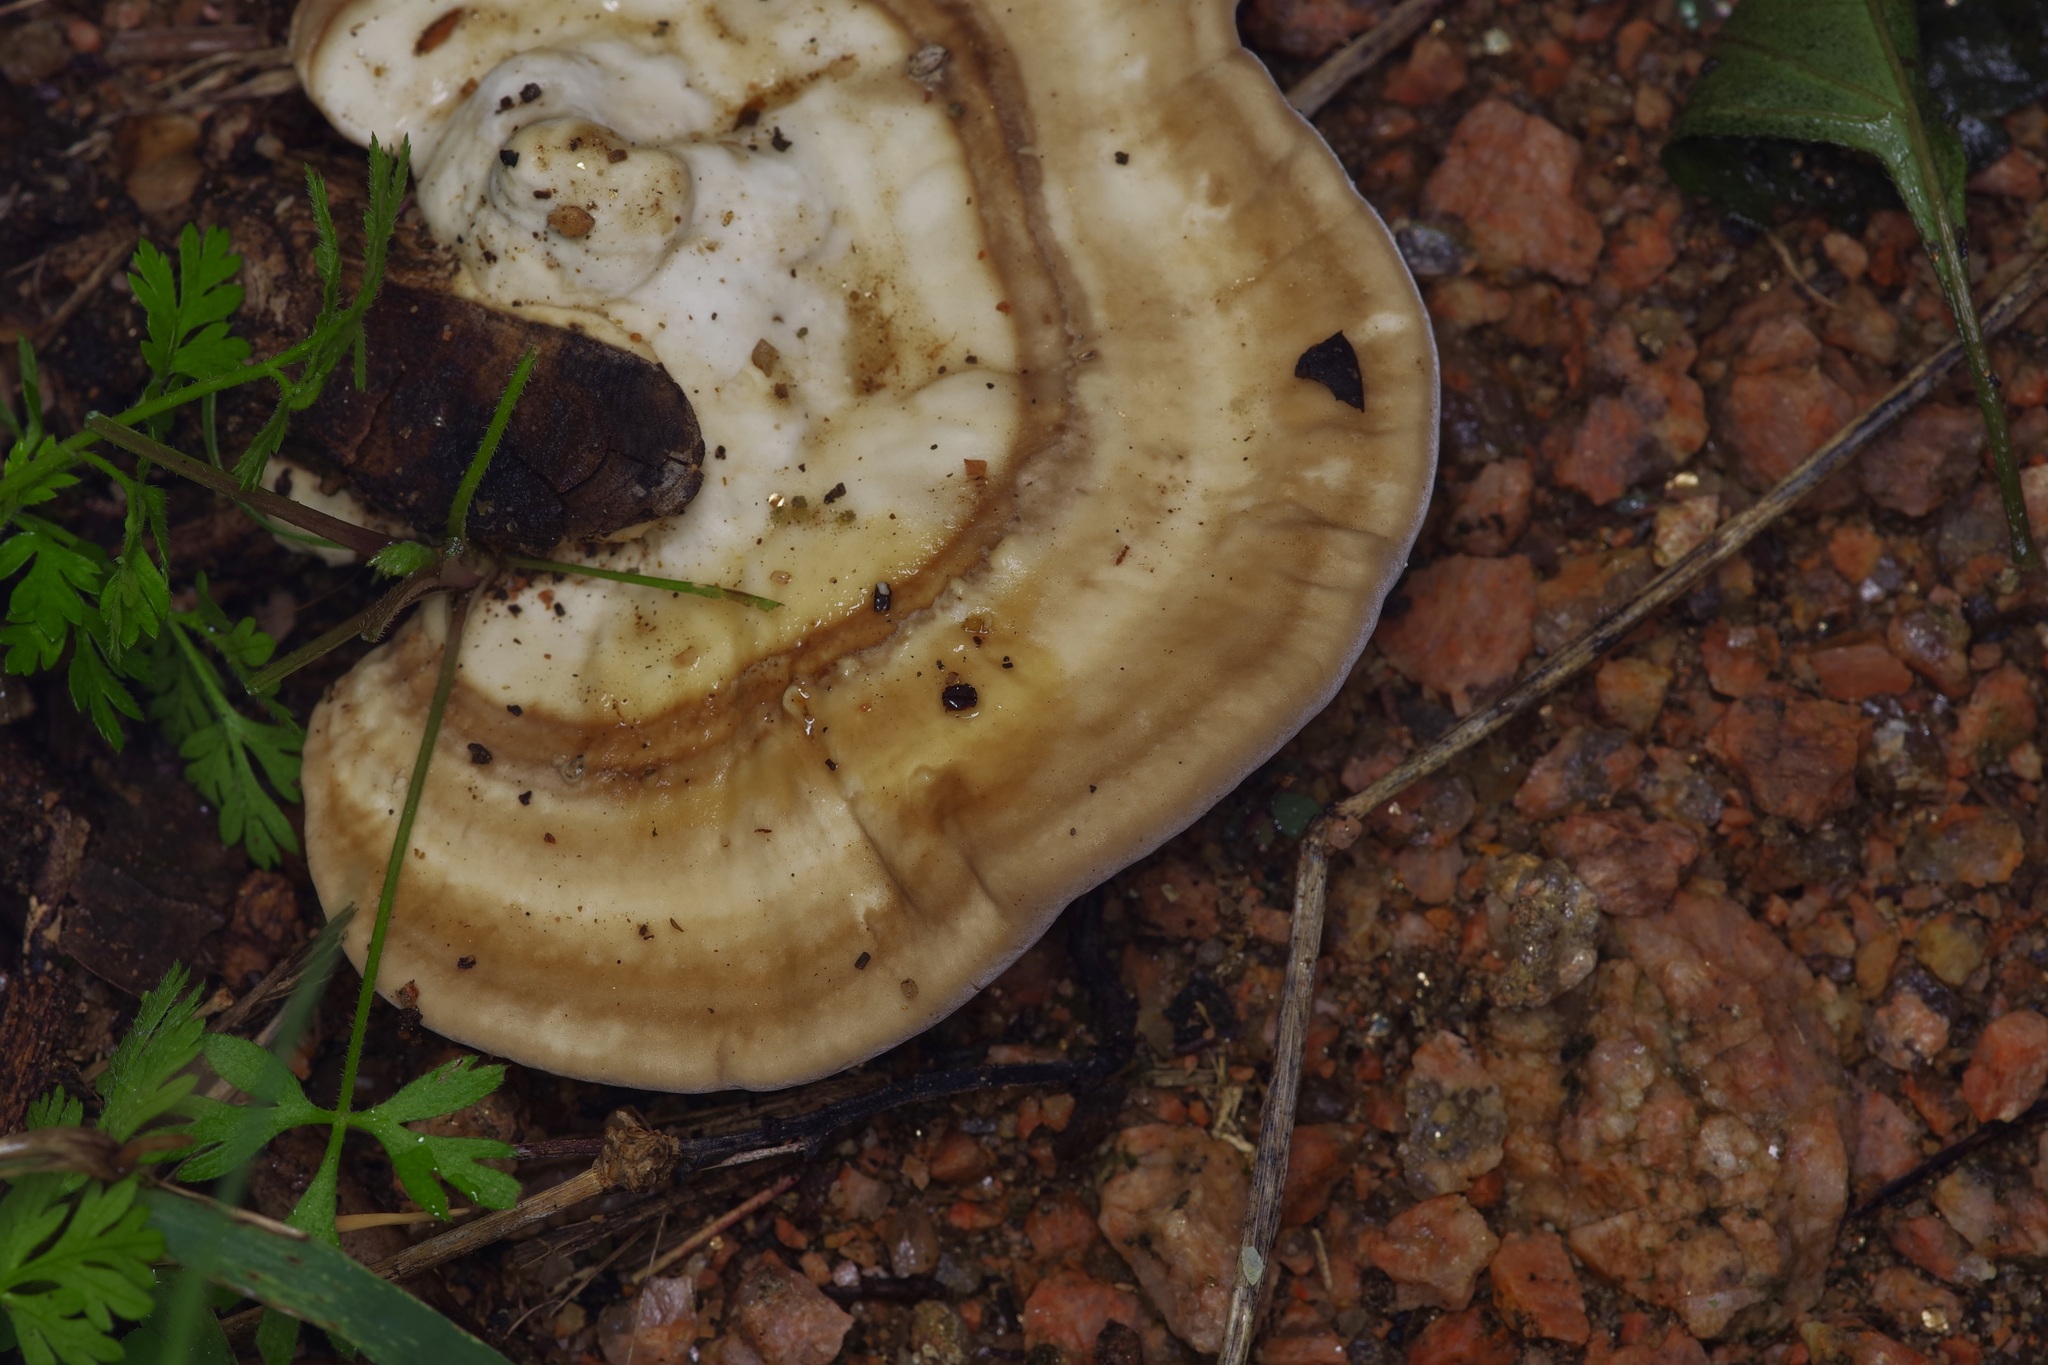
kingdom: Fungi
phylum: Basidiomycota
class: Agaricomycetes
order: Polyporales
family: Polyporaceae
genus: Trametes
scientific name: Trametes lactinea
